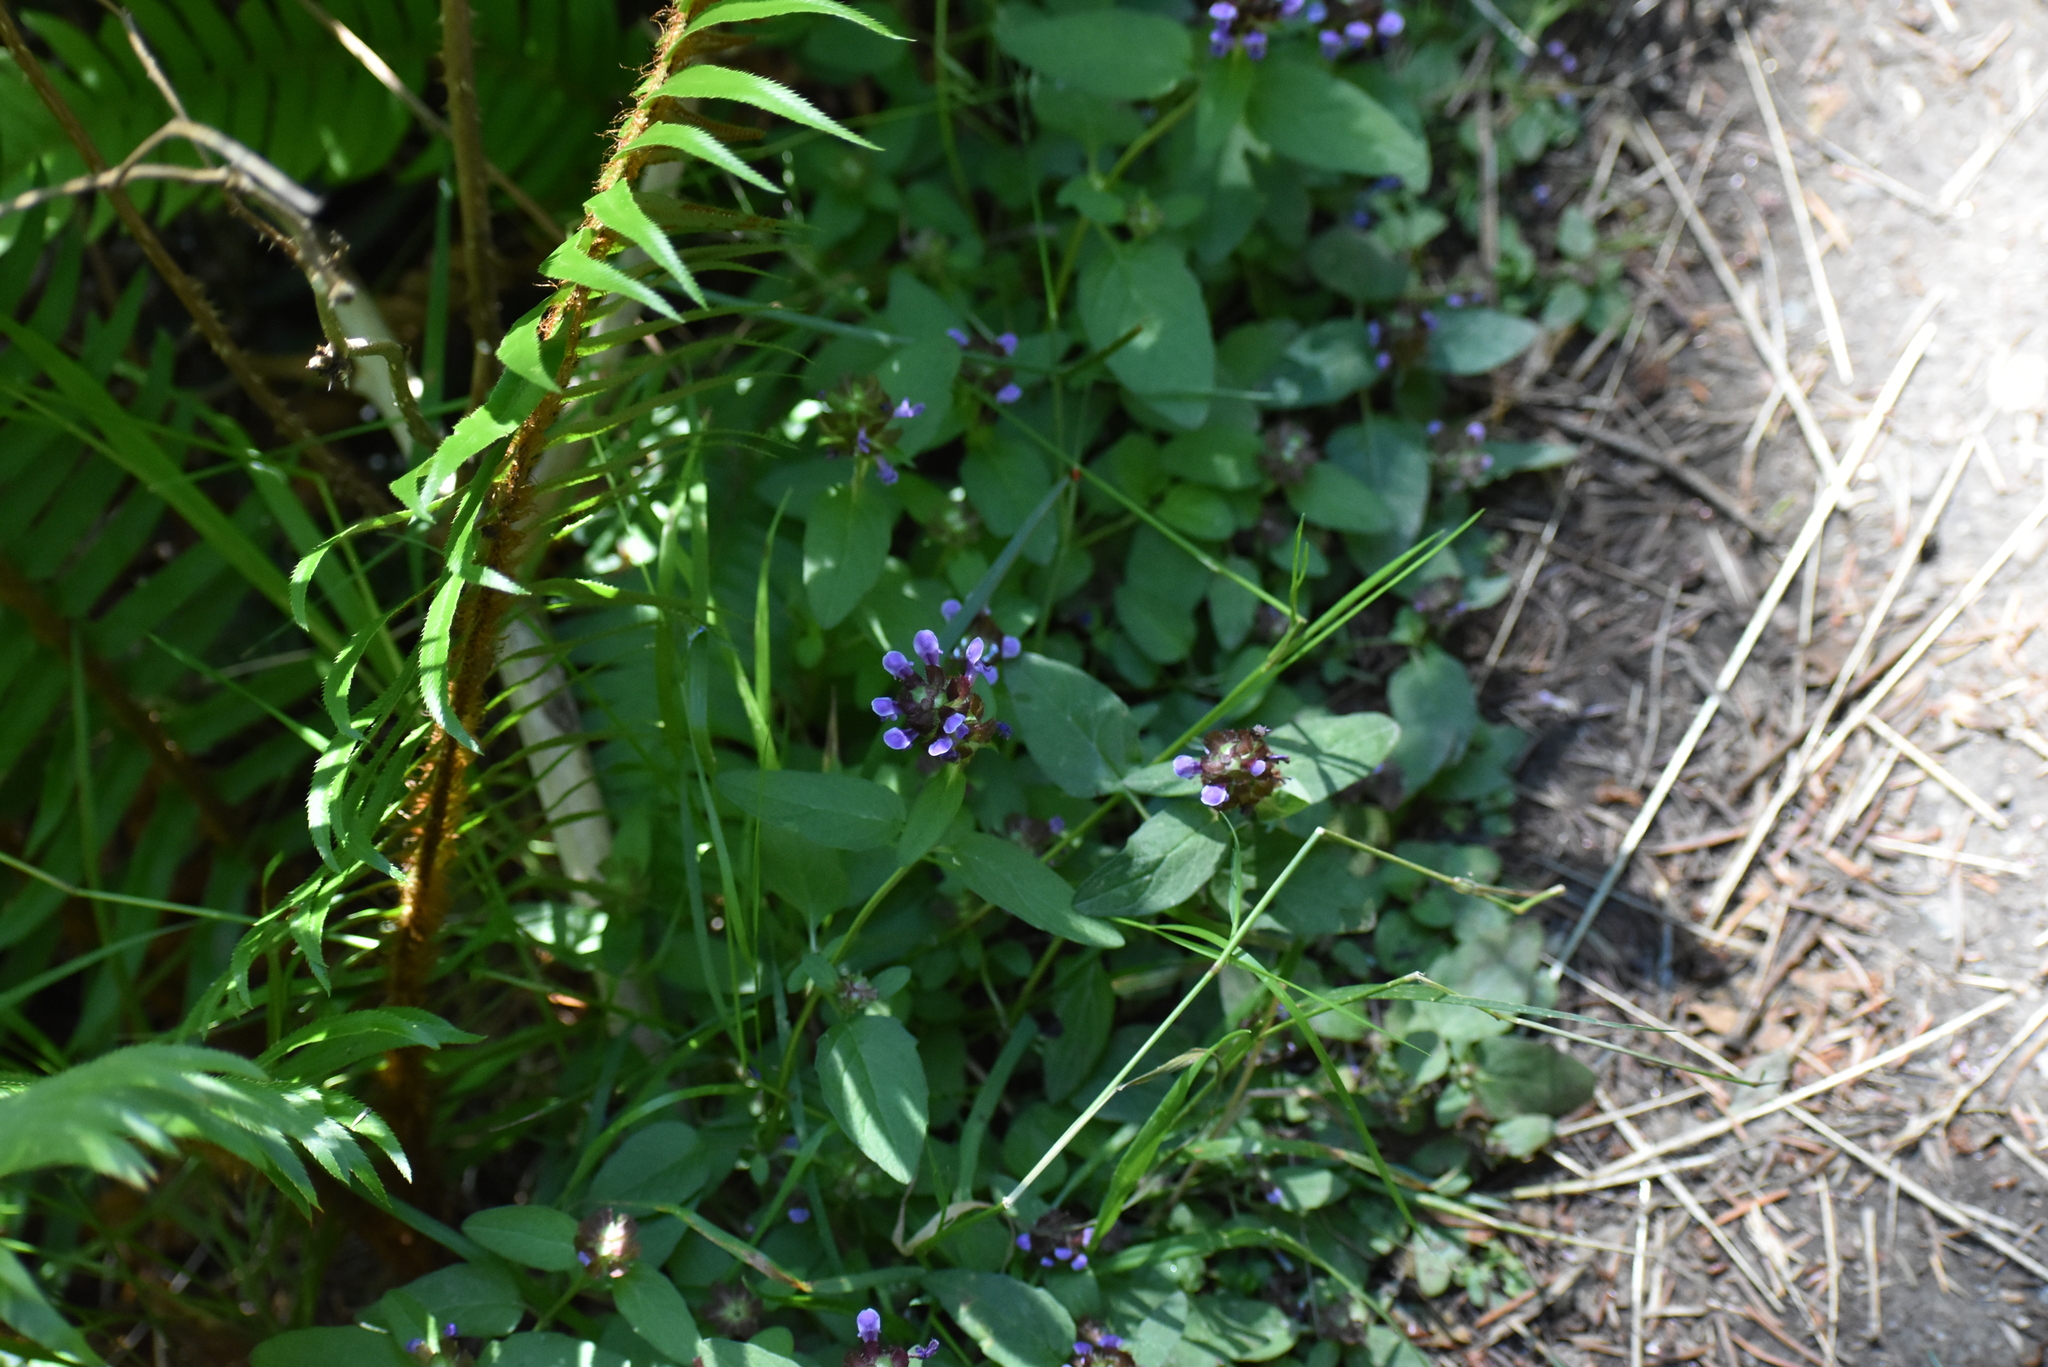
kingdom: Plantae
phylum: Tracheophyta
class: Magnoliopsida
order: Lamiales
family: Lamiaceae
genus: Prunella
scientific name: Prunella vulgaris
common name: Heal-all
